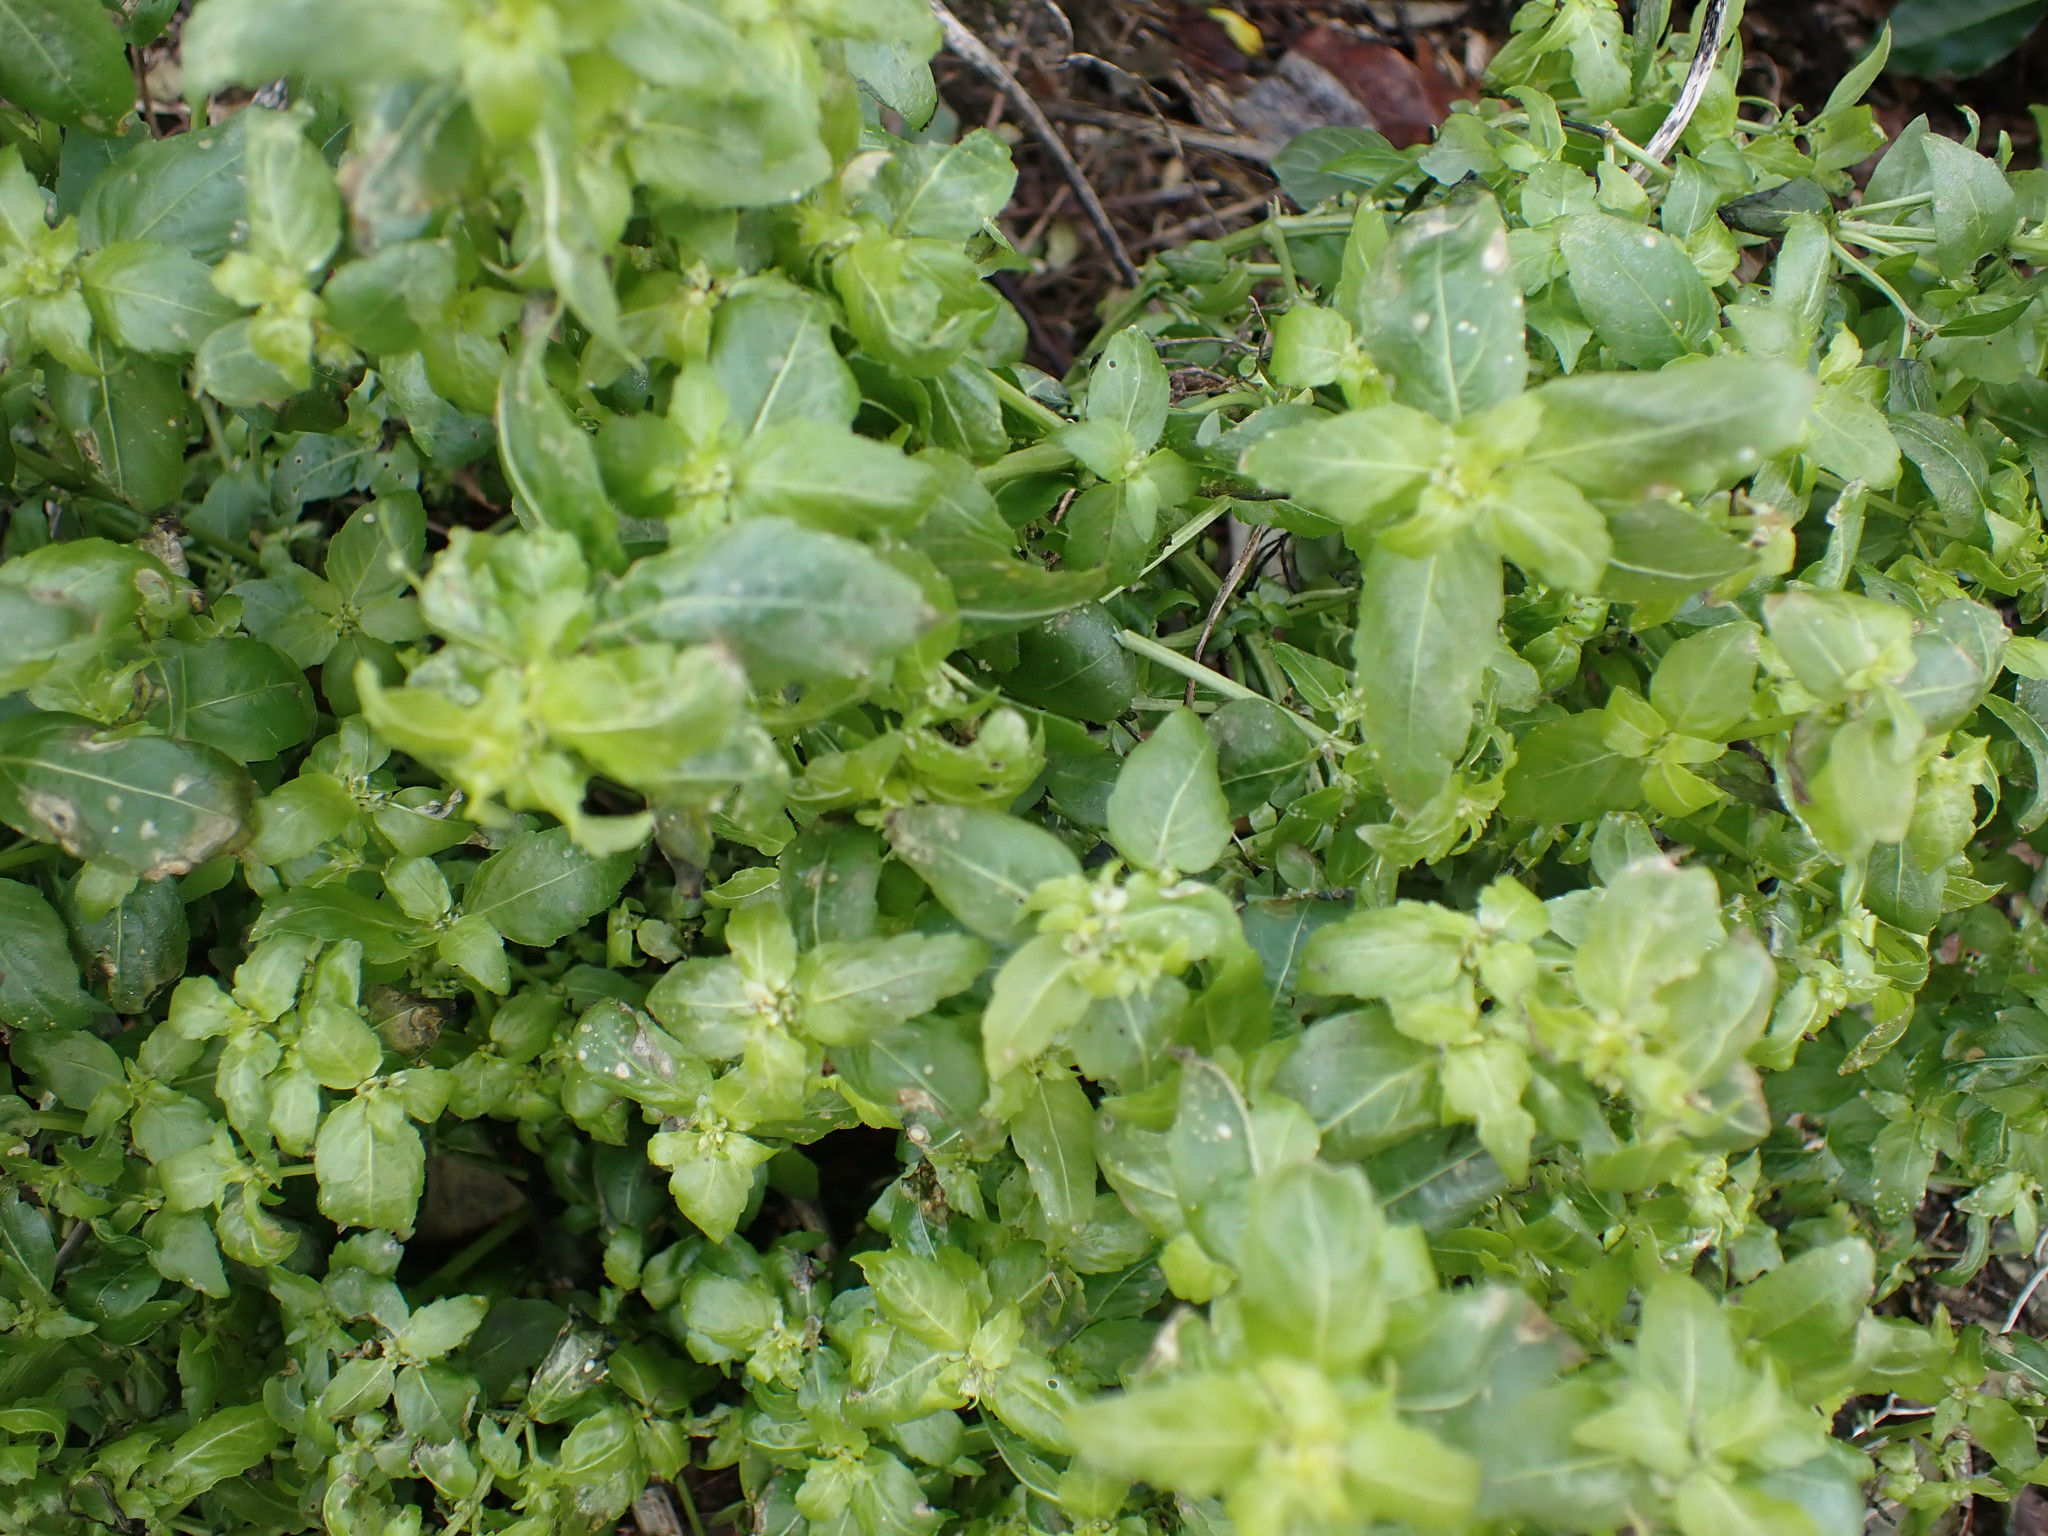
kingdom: Plantae
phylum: Tracheophyta
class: Magnoliopsida
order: Malpighiales
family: Euphorbiaceae
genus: Mercurialis
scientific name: Mercurialis annua
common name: Annual mercury
